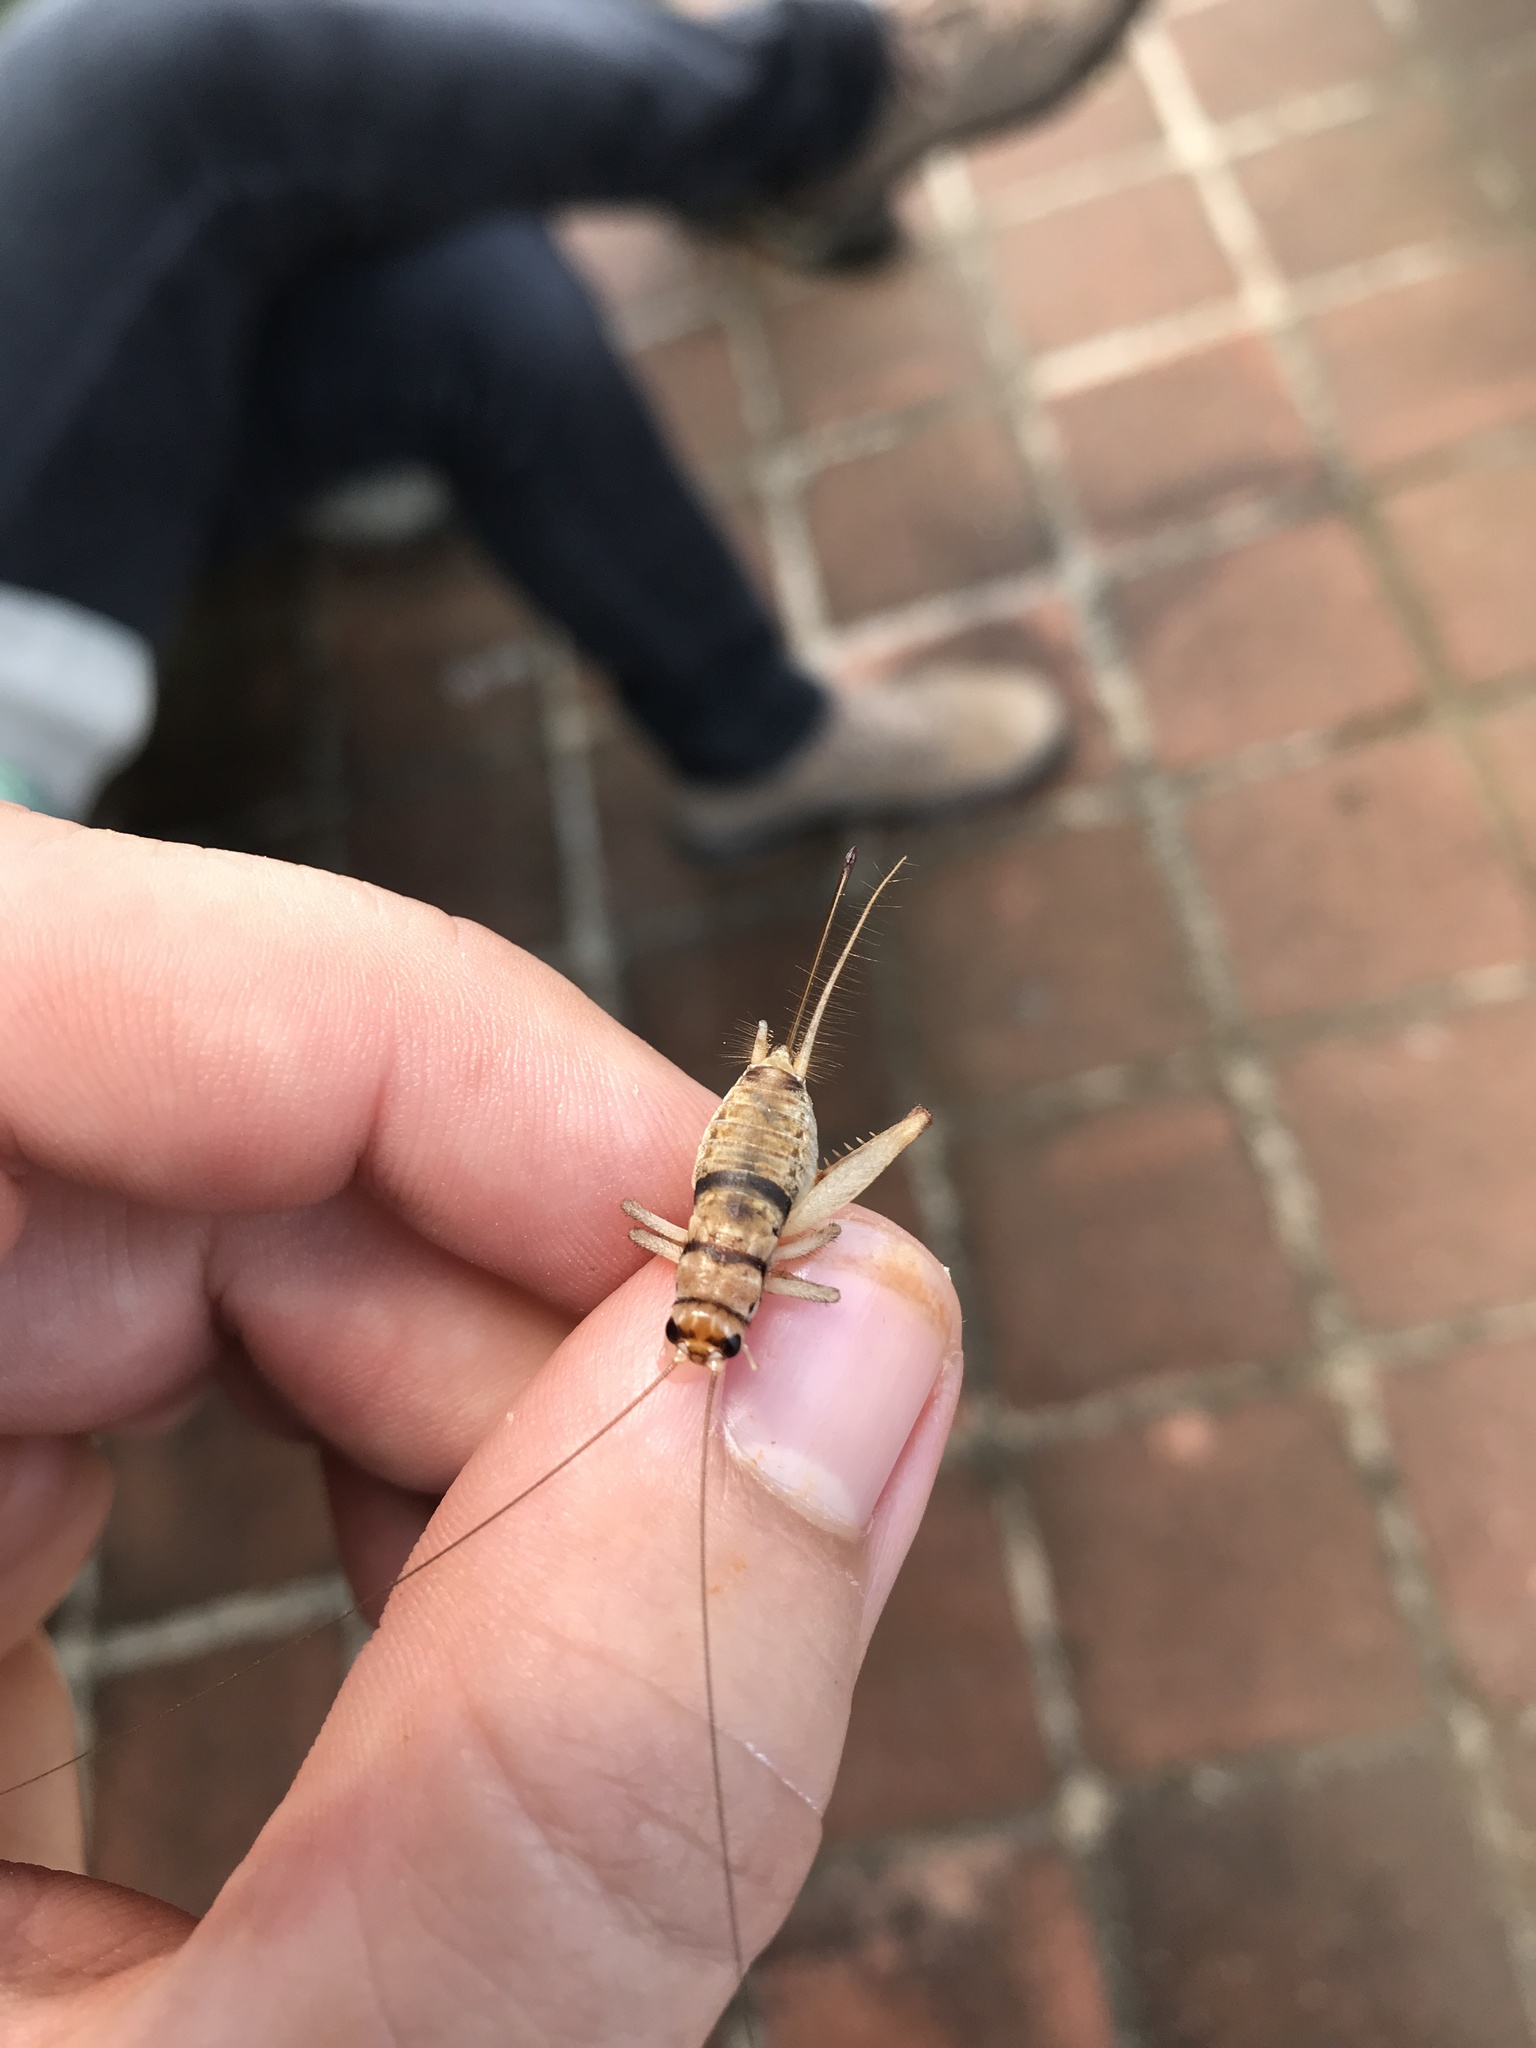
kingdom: Animalia
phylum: Arthropoda
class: Insecta
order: Orthoptera
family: Gryllidae
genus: Gryllodes
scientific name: Gryllodes sigillatus
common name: Tropical house cricket
